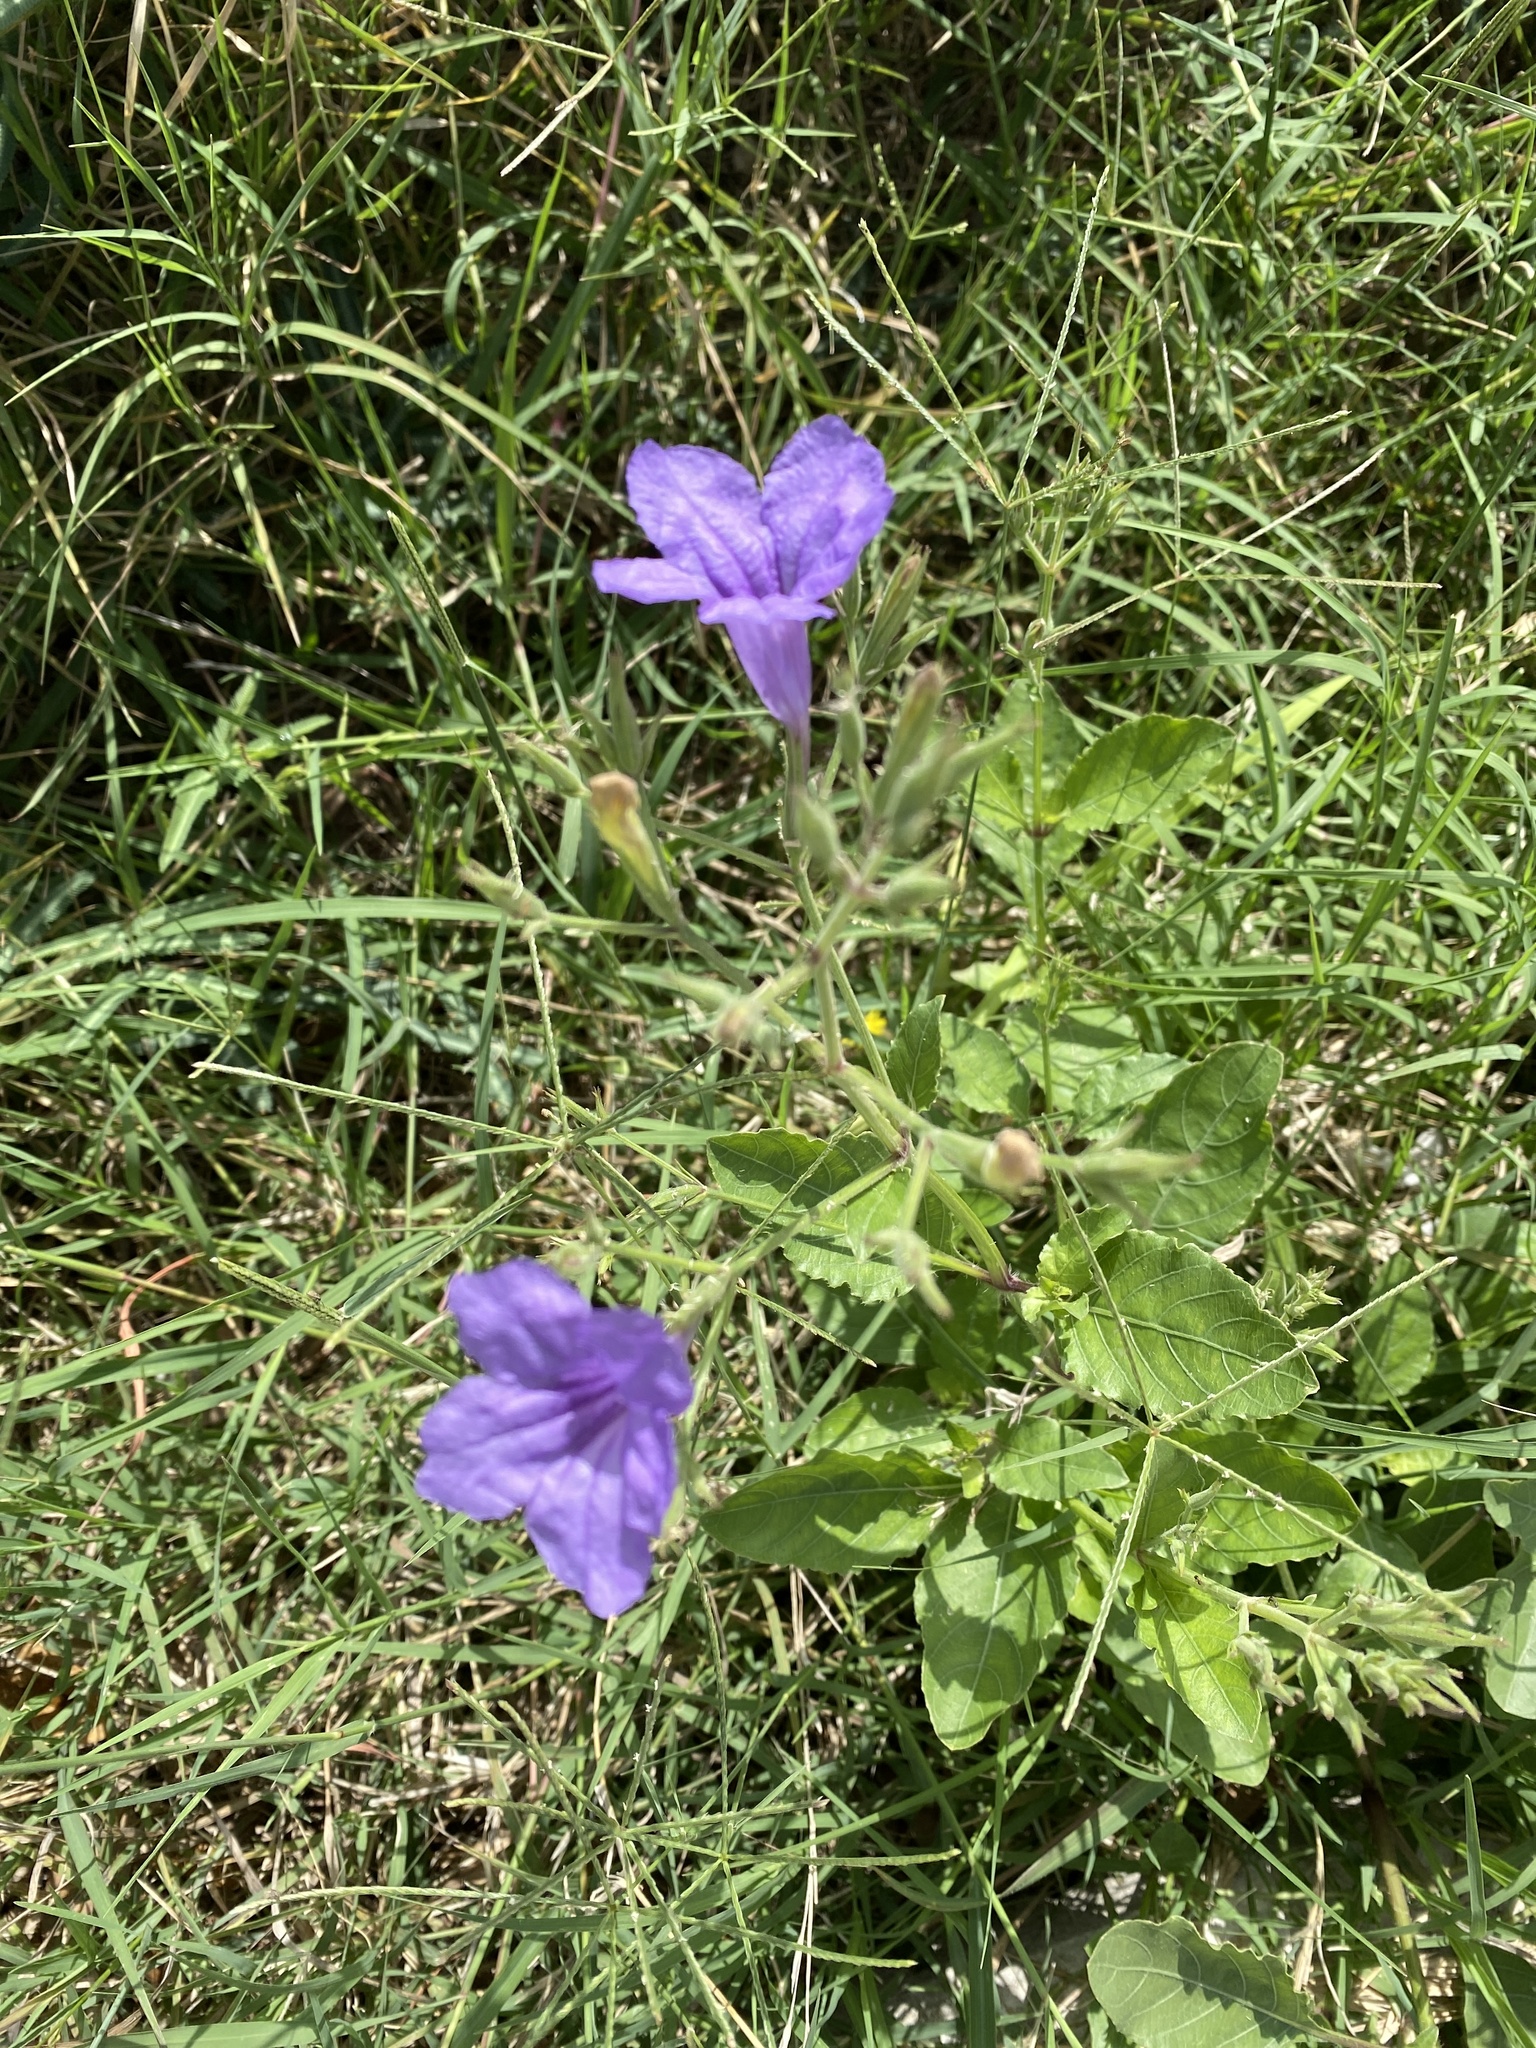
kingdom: Plantae
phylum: Tracheophyta
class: Magnoliopsida
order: Lamiales
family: Acanthaceae
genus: Ruellia
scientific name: Ruellia ciliatiflora
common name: Hairyflower wild petunia
